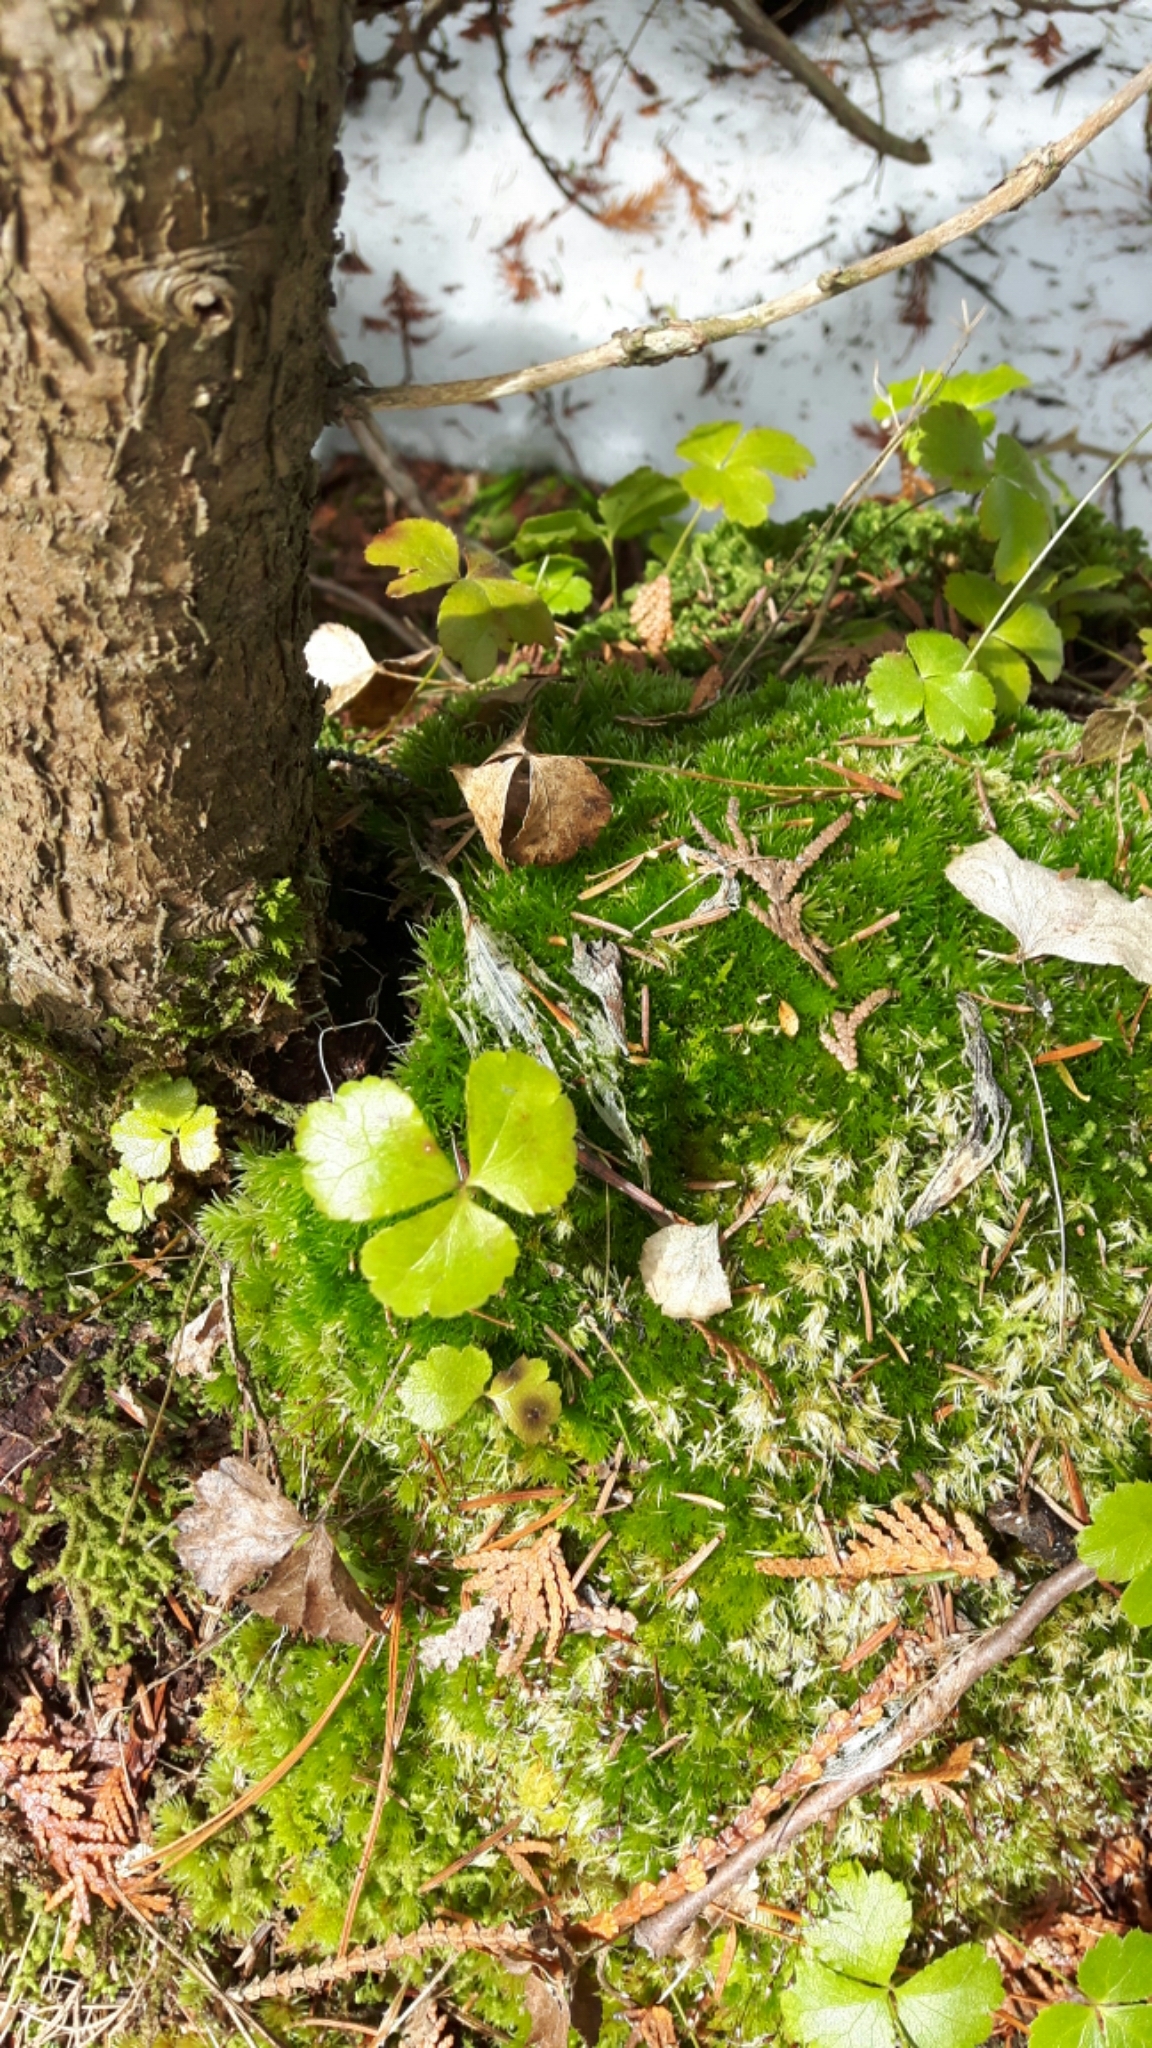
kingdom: Plantae
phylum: Tracheophyta
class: Magnoliopsida
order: Ranunculales
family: Ranunculaceae
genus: Coptis
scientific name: Coptis trifolia
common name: Canker-root
